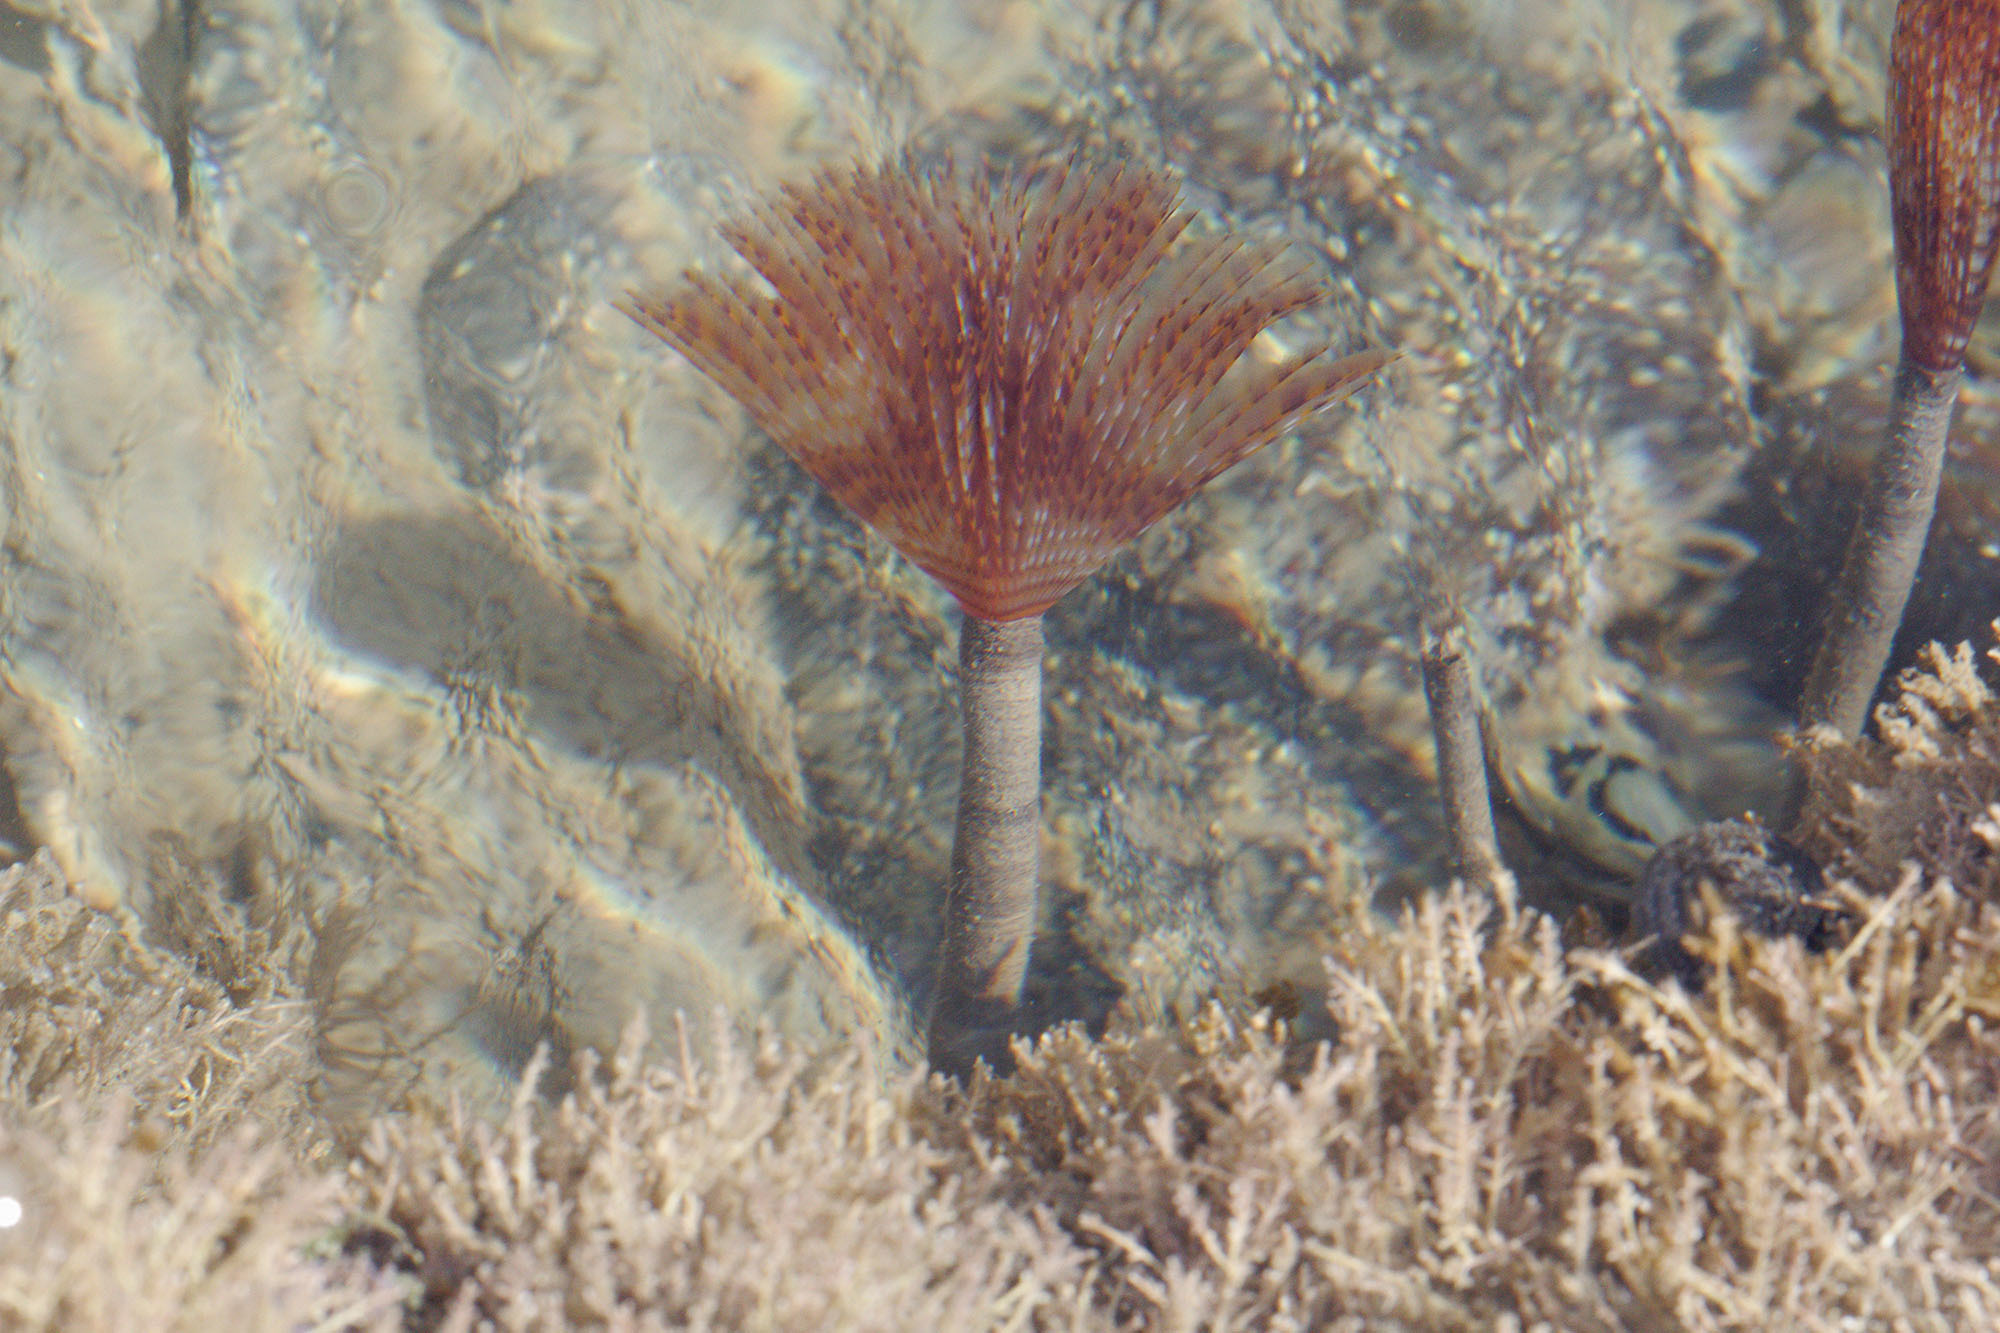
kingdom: Animalia
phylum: Annelida
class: Polychaeta
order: Sabellida
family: Sabellidae
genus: Sabella
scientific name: Sabella spallanzanii
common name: Feather duster worm
